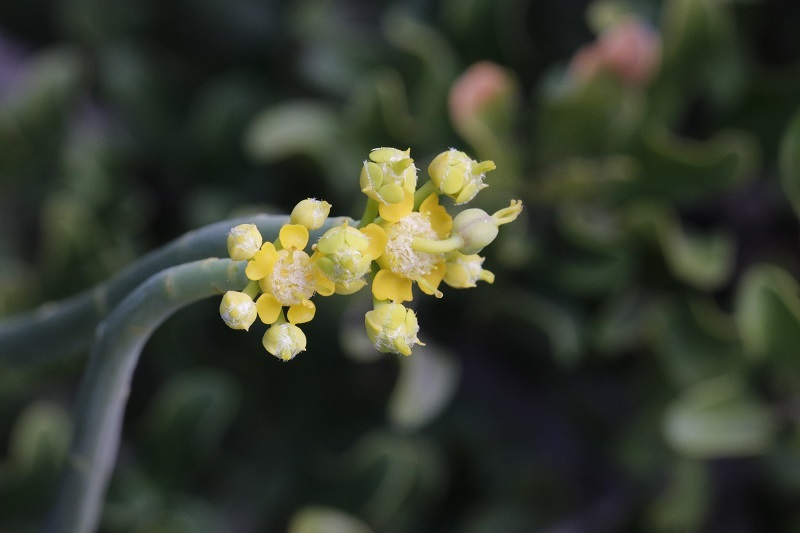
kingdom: Plantae
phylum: Tracheophyta
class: Magnoliopsida
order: Malpighiales
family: Euphorbiaceae
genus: Euphorbia
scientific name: Euphorbia mauritanica
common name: Jackal's-food
